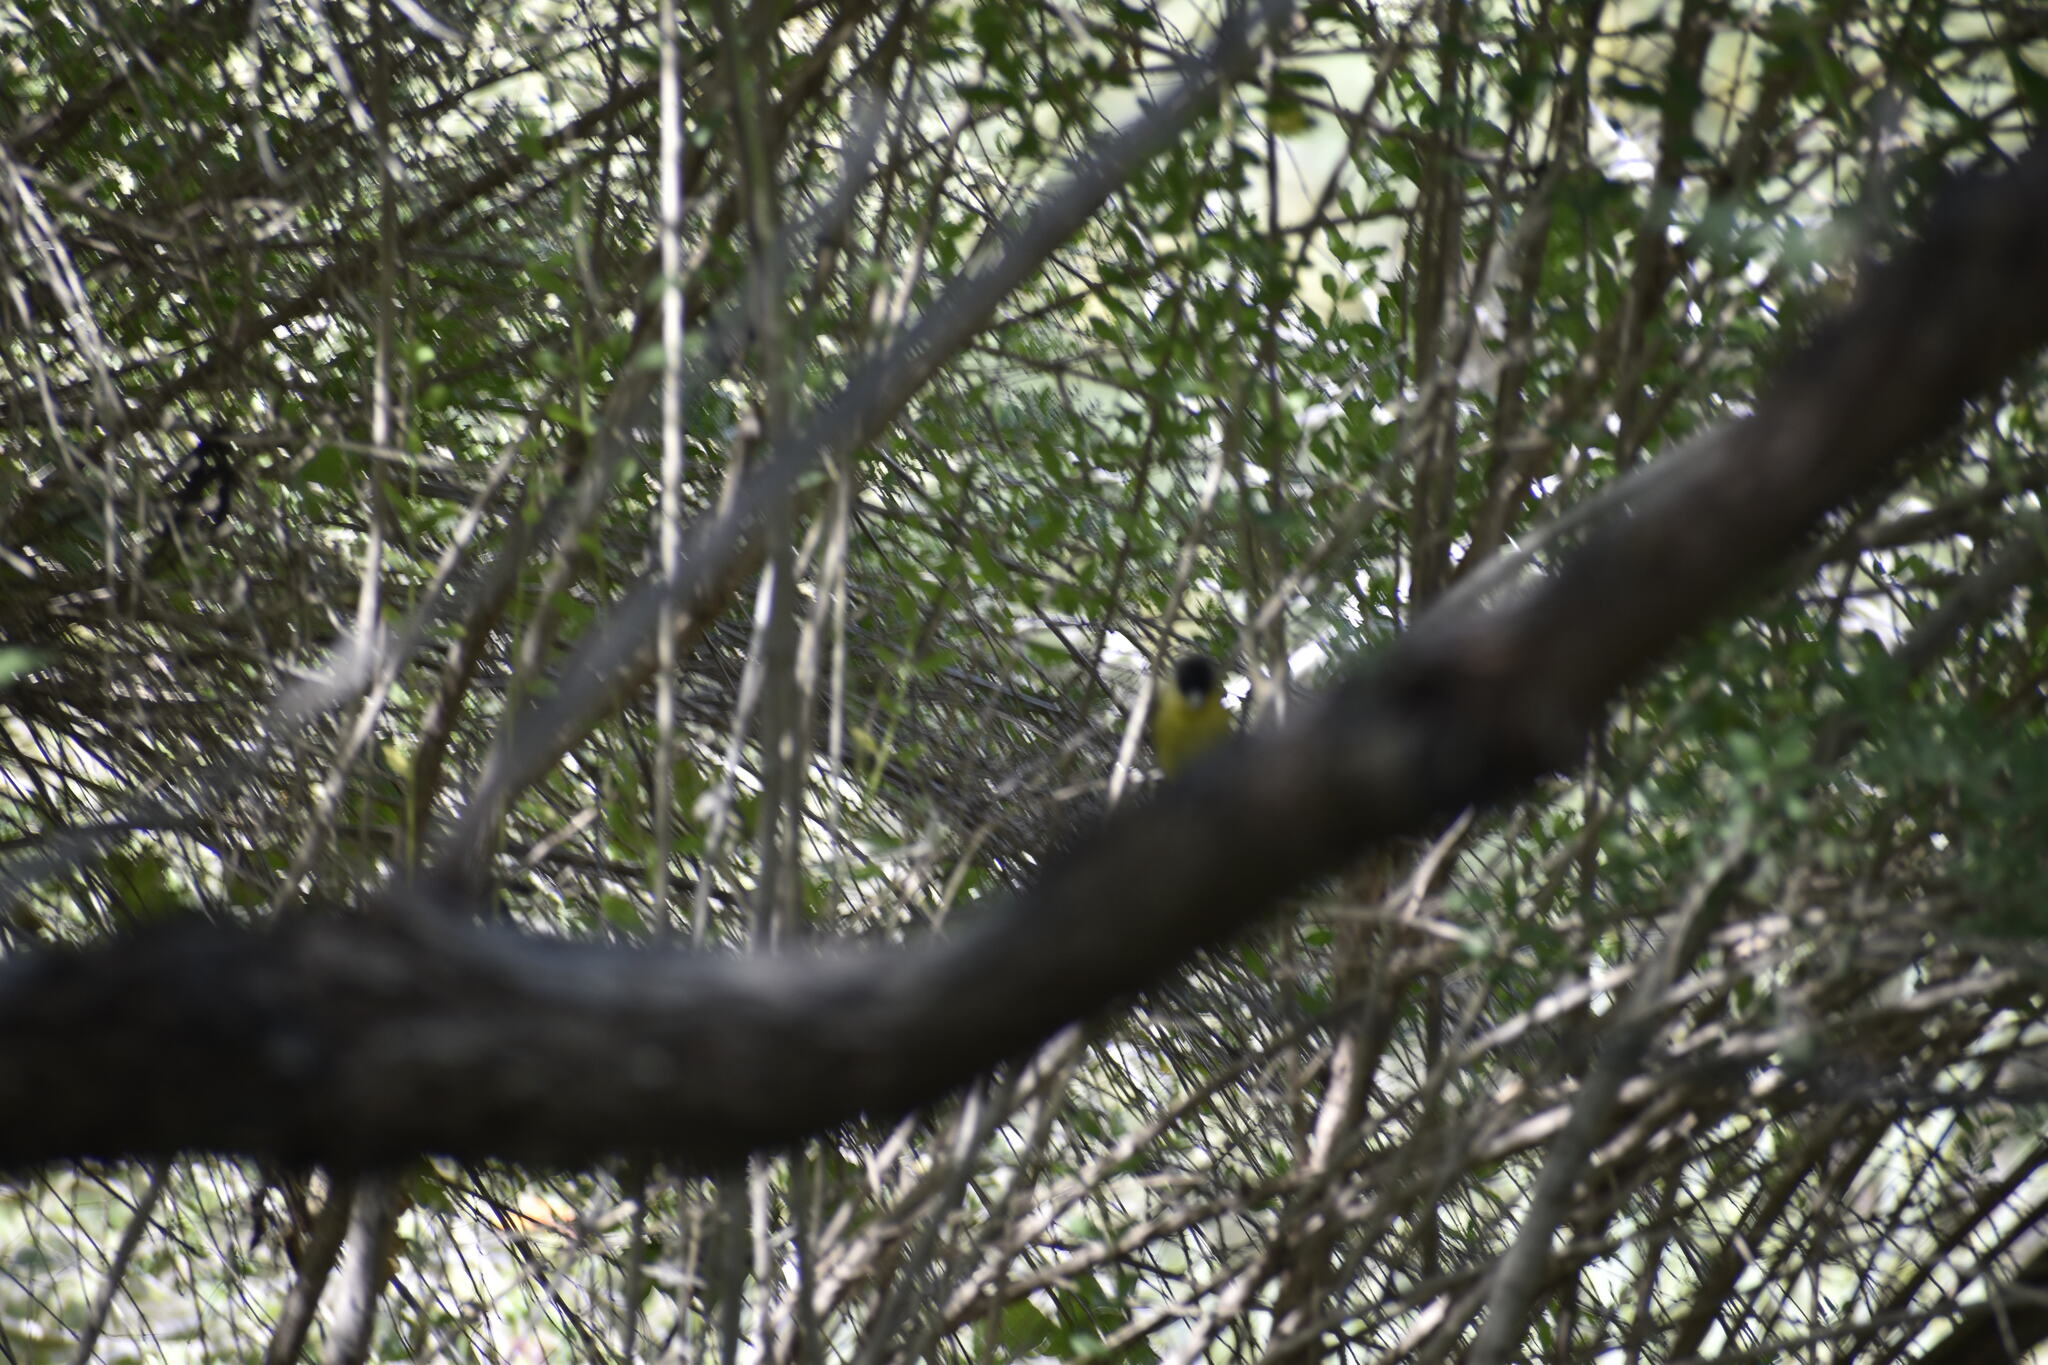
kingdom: Animalia
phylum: Chordata
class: Aves
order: Passeriformes
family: Fringillidae
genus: Spinus
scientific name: Spinus psaltria
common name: Lesser goldfinch
